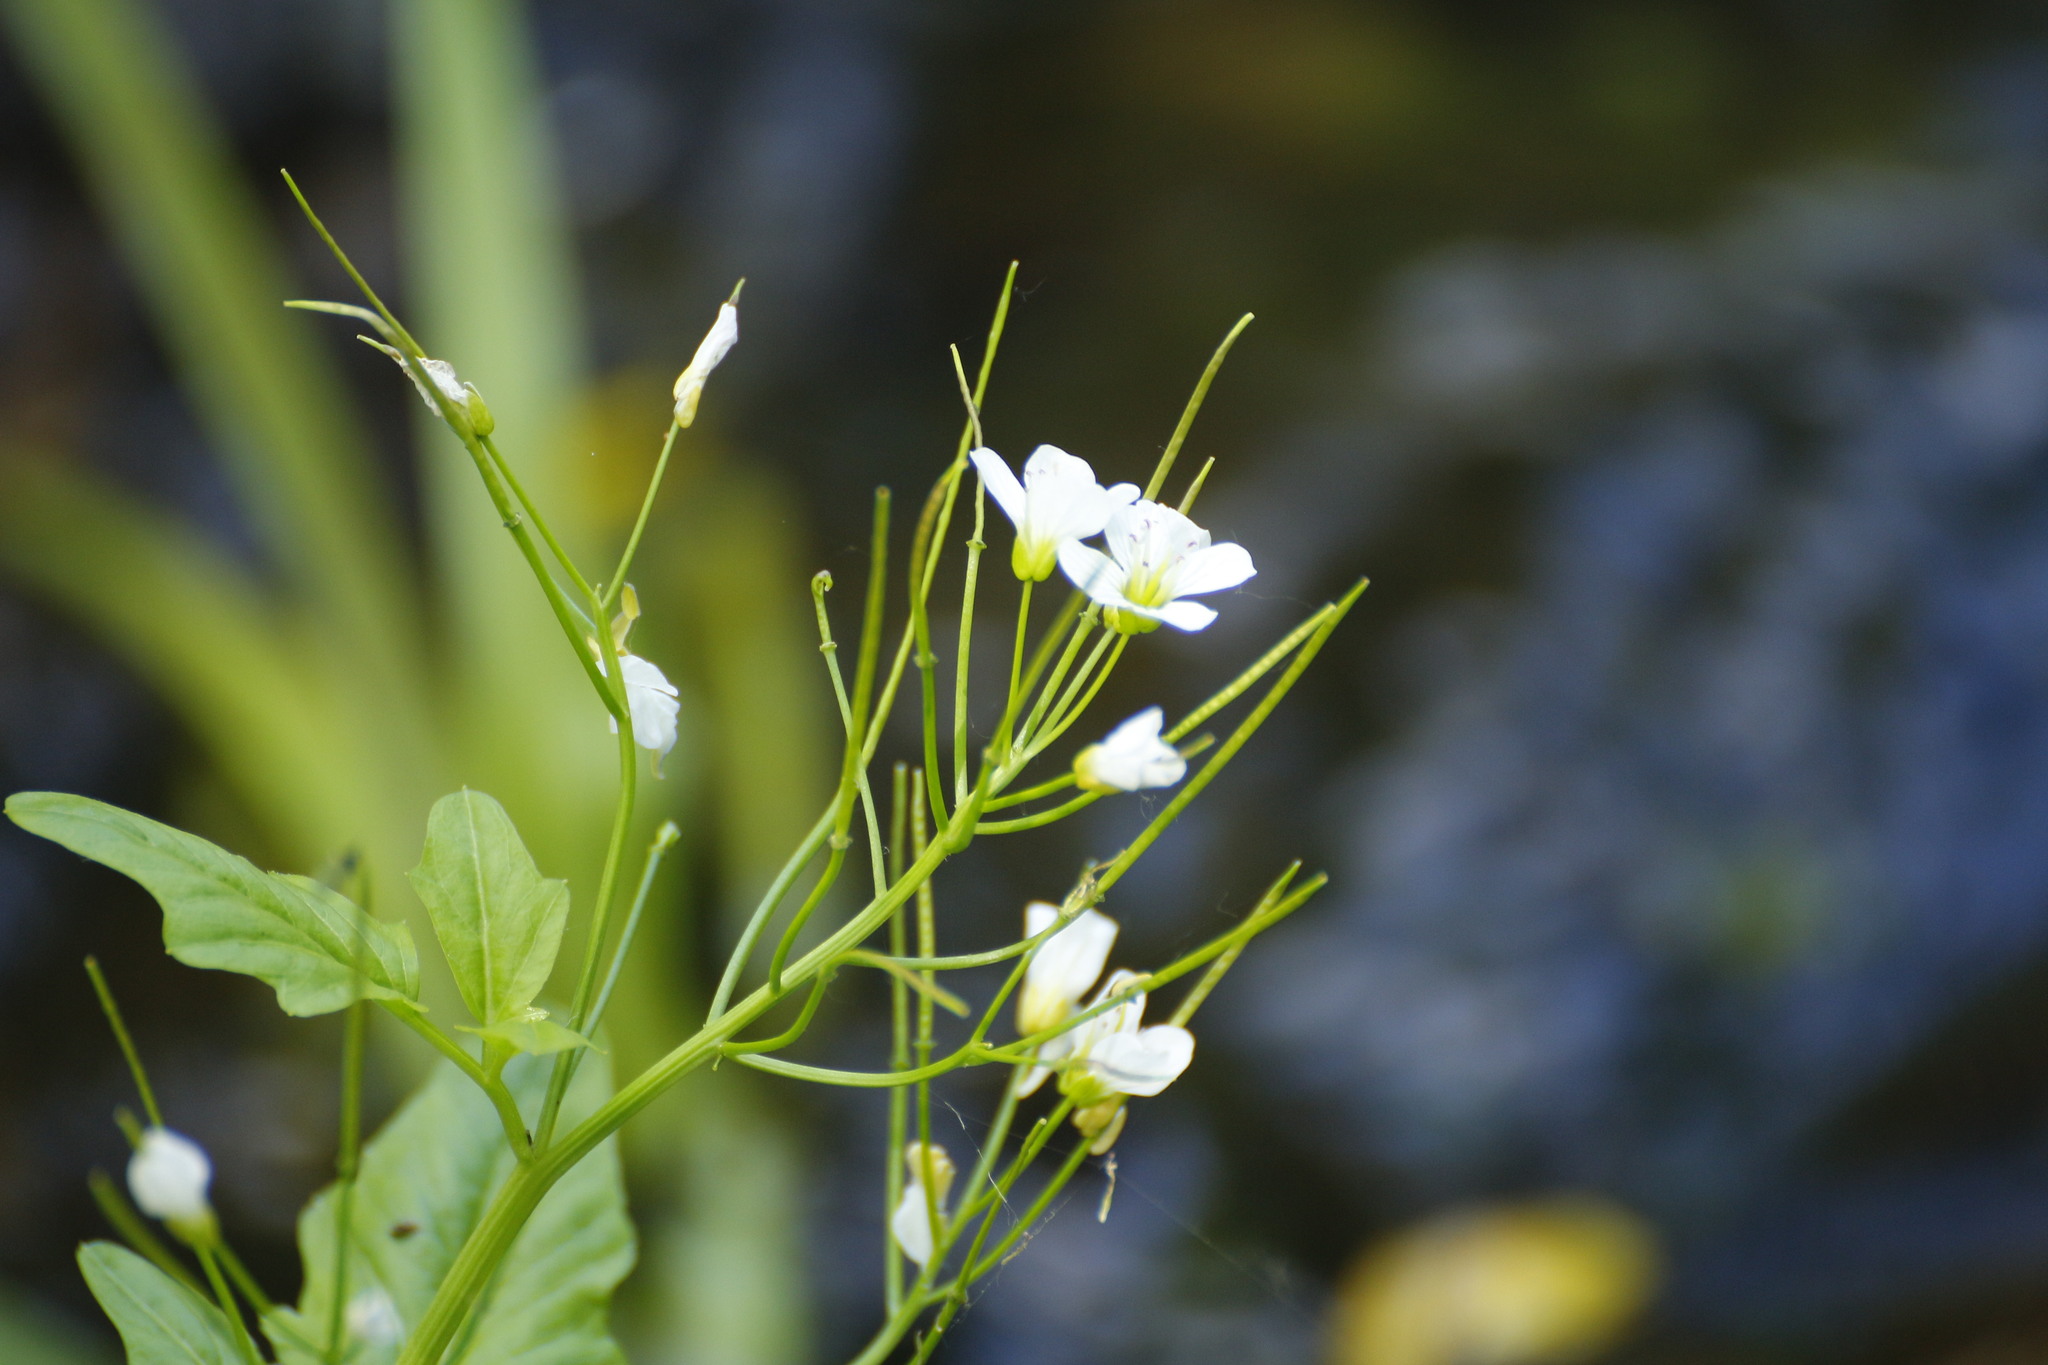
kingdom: Plantae
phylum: Tracheophyta
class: Magnoliopsida
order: Brassicales
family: Brassicaceae
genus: Cardamine
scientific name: Cardamine amara
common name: Large bitter-cress
